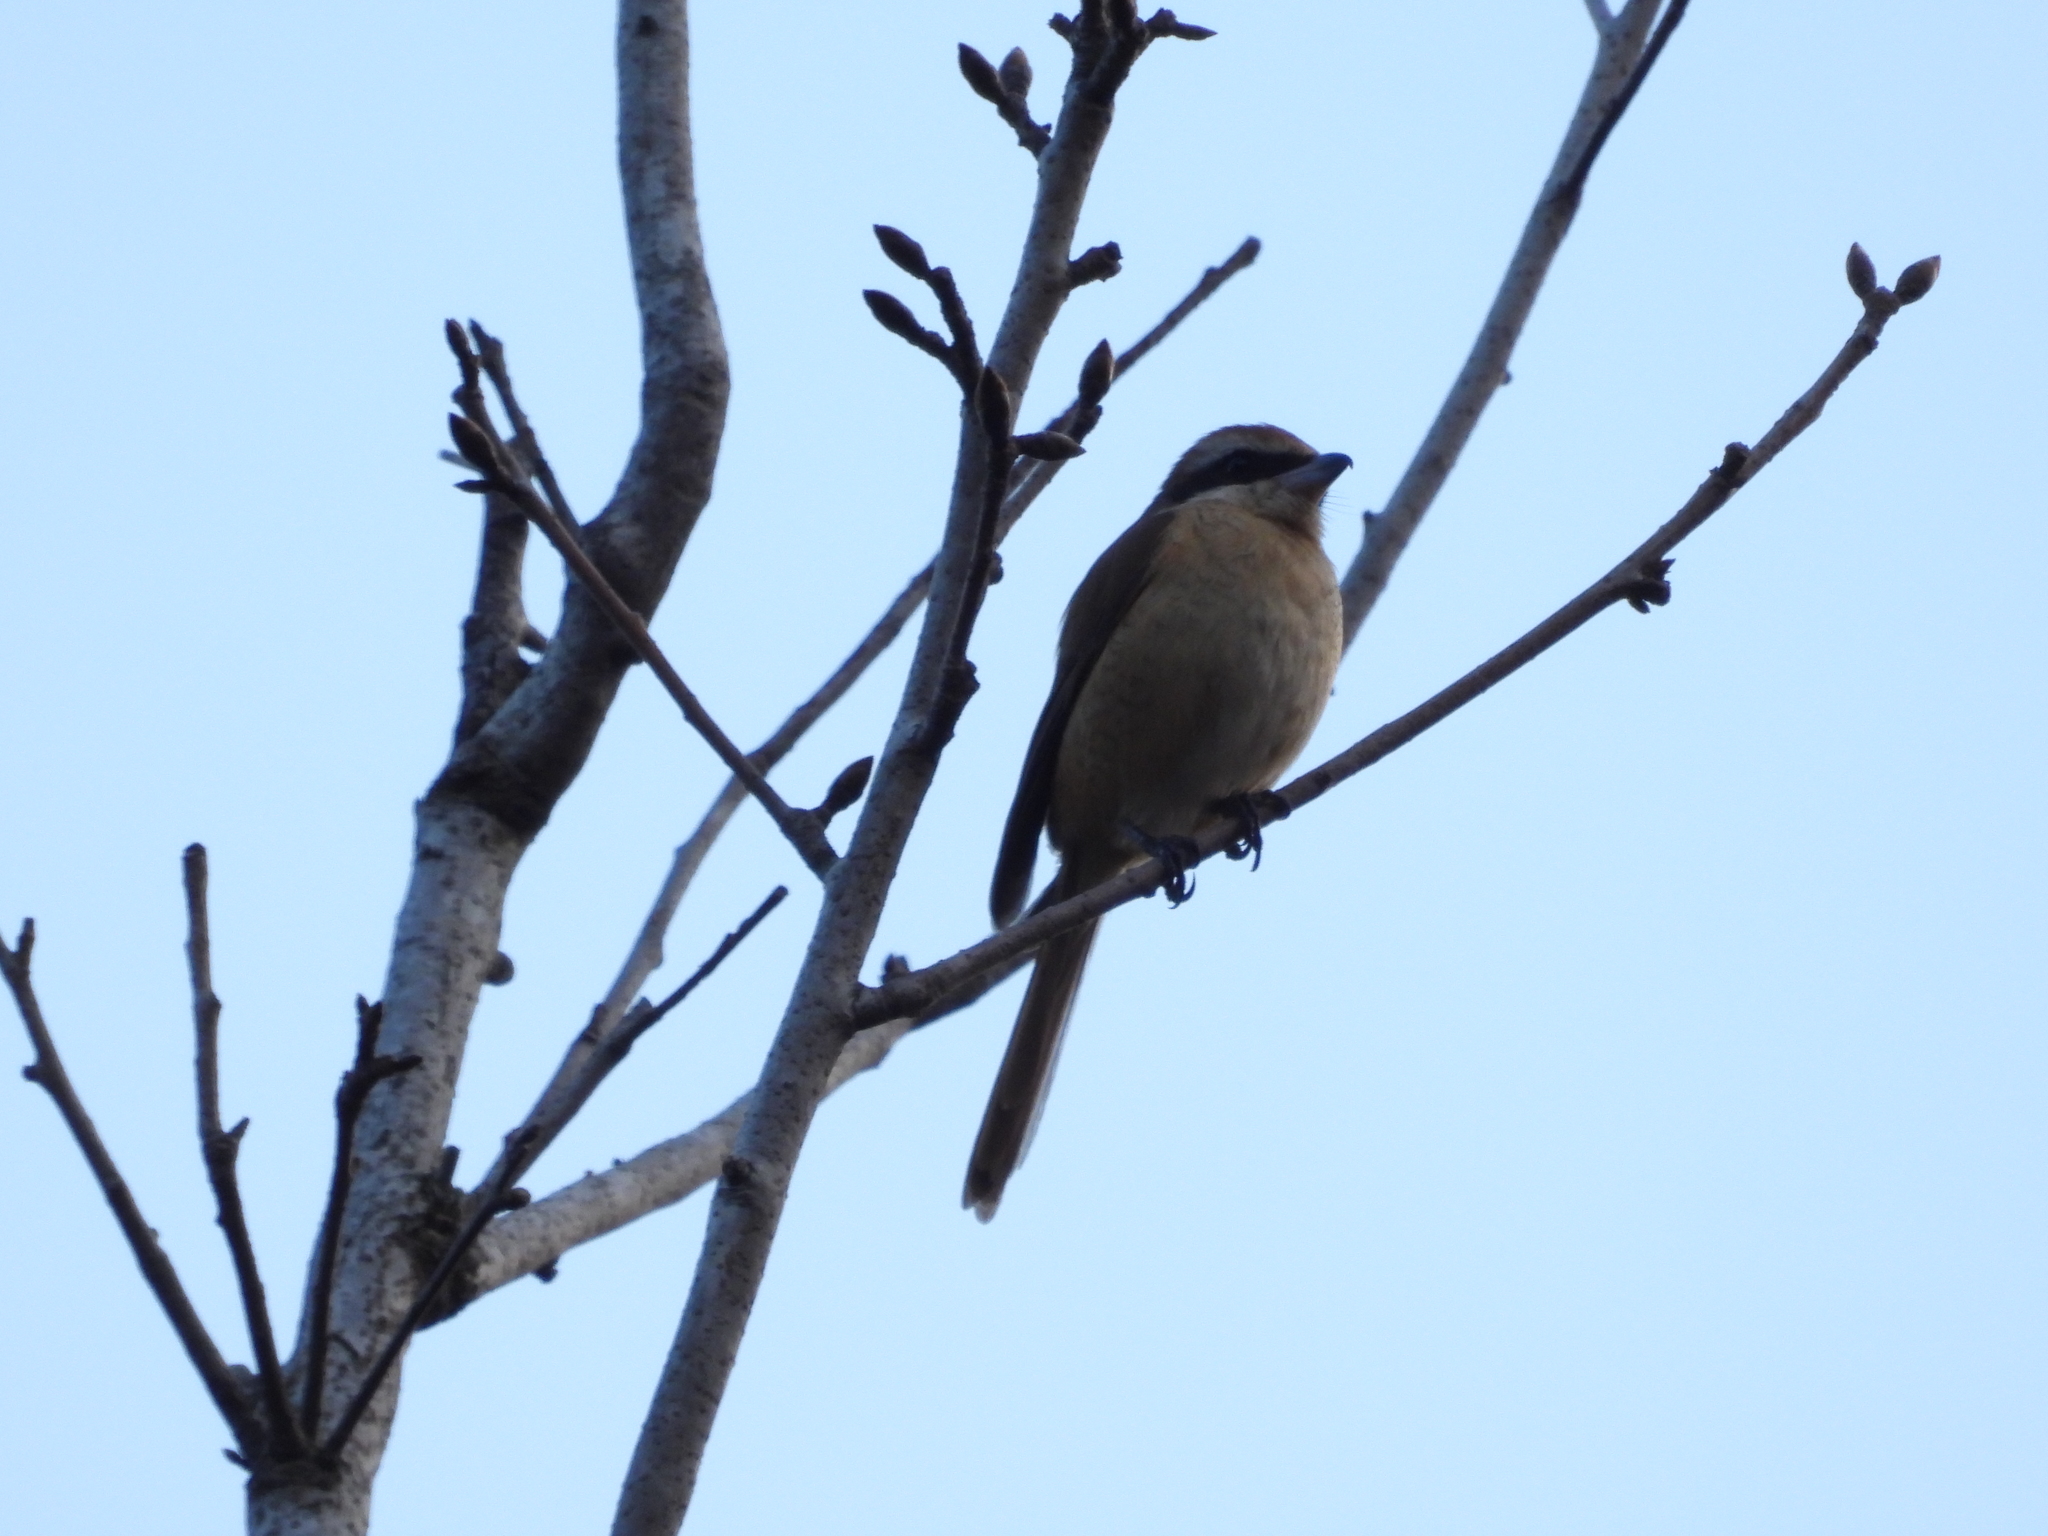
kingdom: Animalia
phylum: Chordata
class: Aves
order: Passeriformes
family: Laniidae
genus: Lanius
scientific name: Lanius cristatus
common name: Brown shrike
